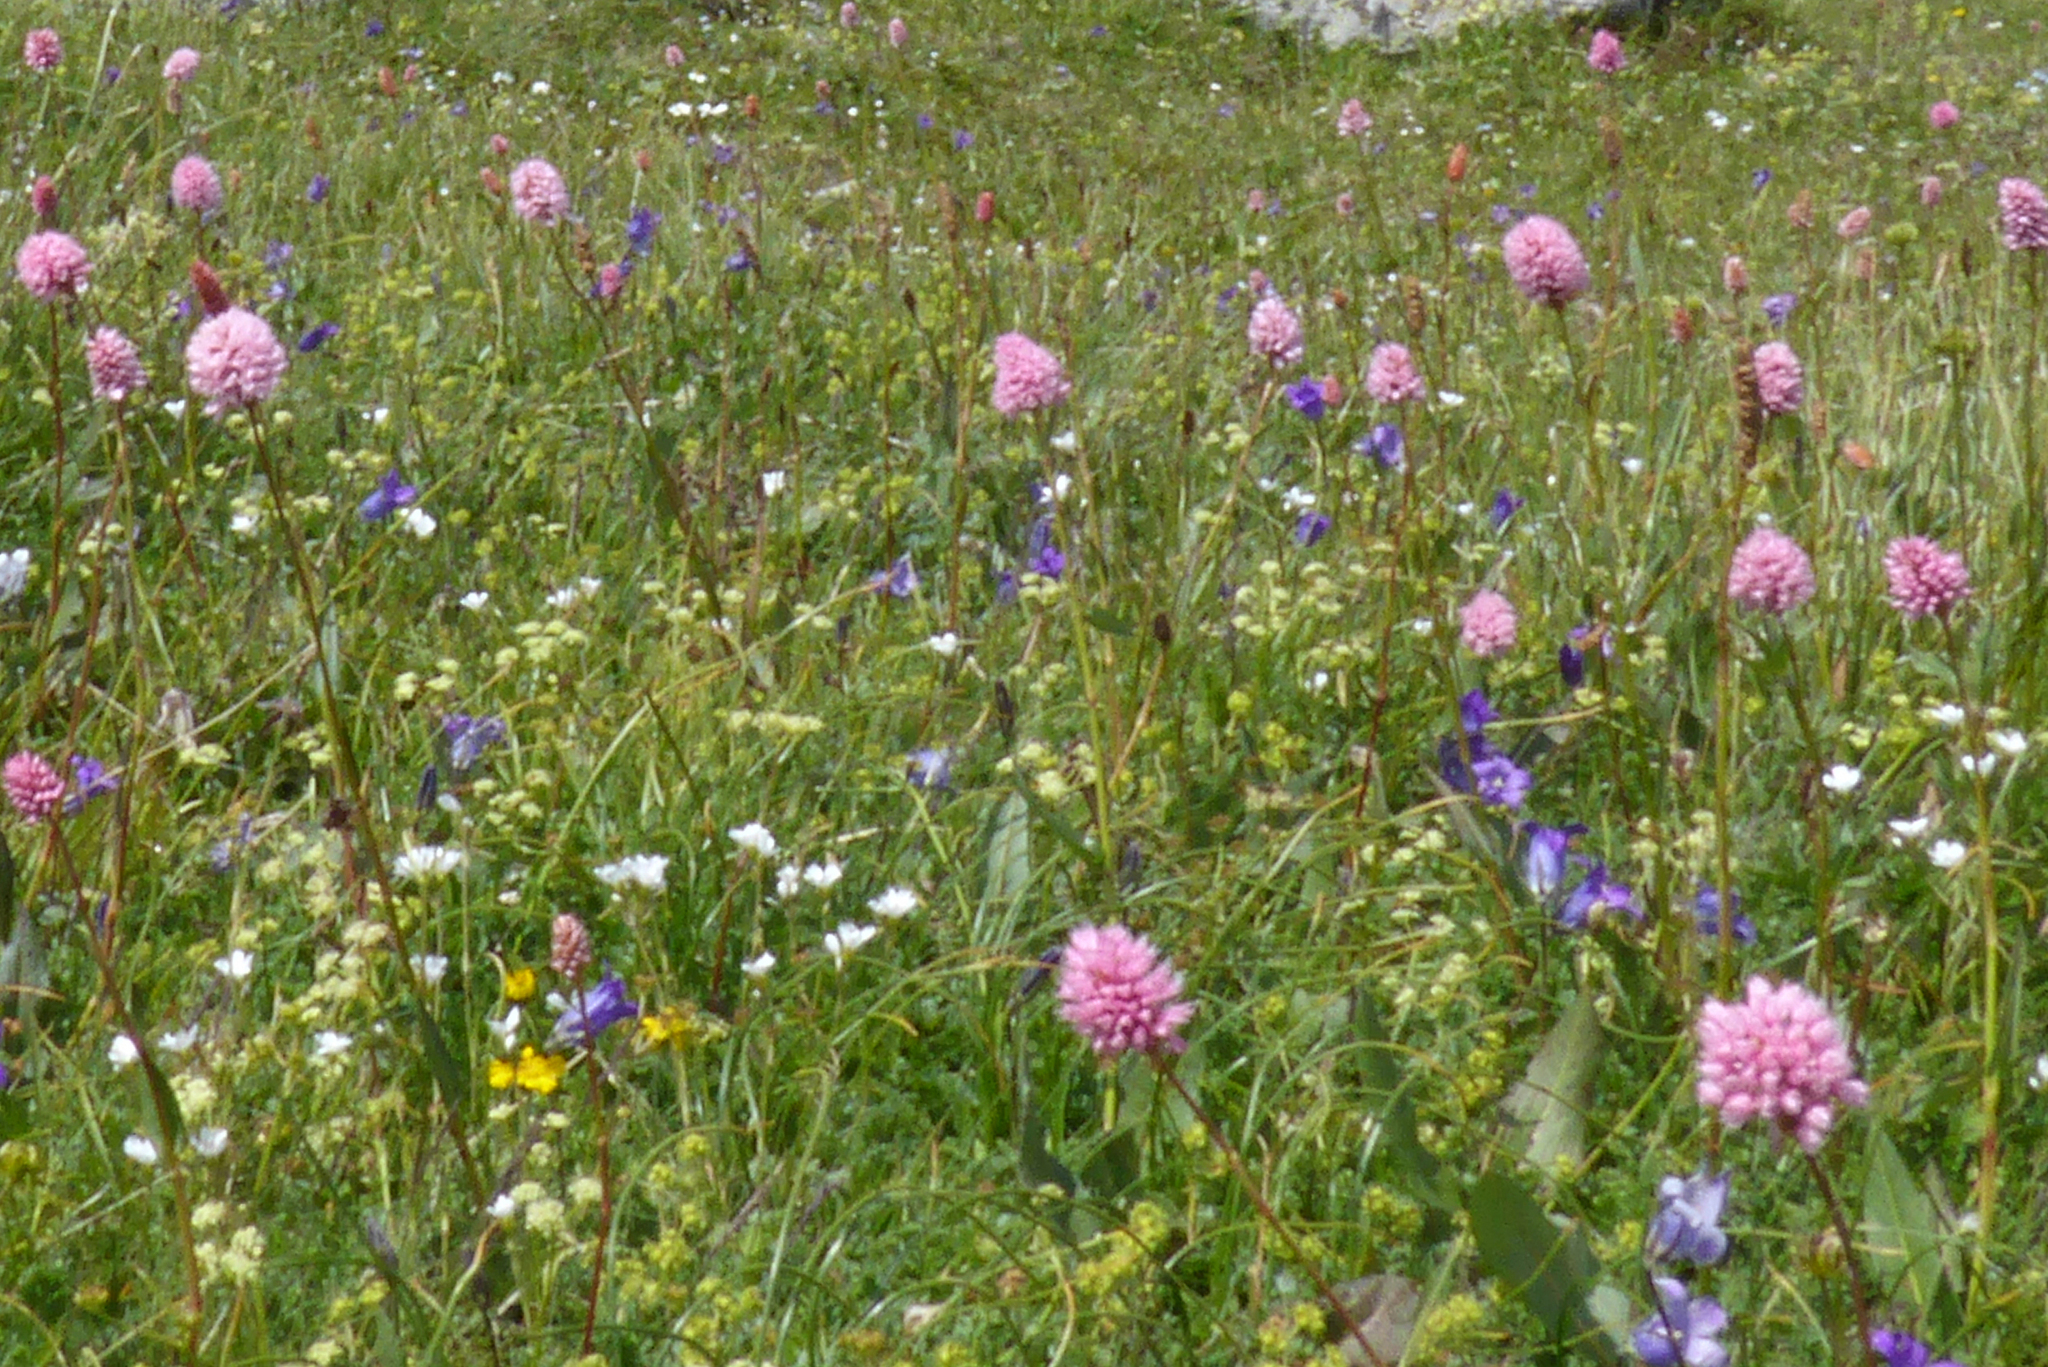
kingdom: Plantae
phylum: Tracheophyta
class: Magnoliopsida
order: Caryophyllales
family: Polygonaceae
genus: Bistorta
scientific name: Bistorta carnea
